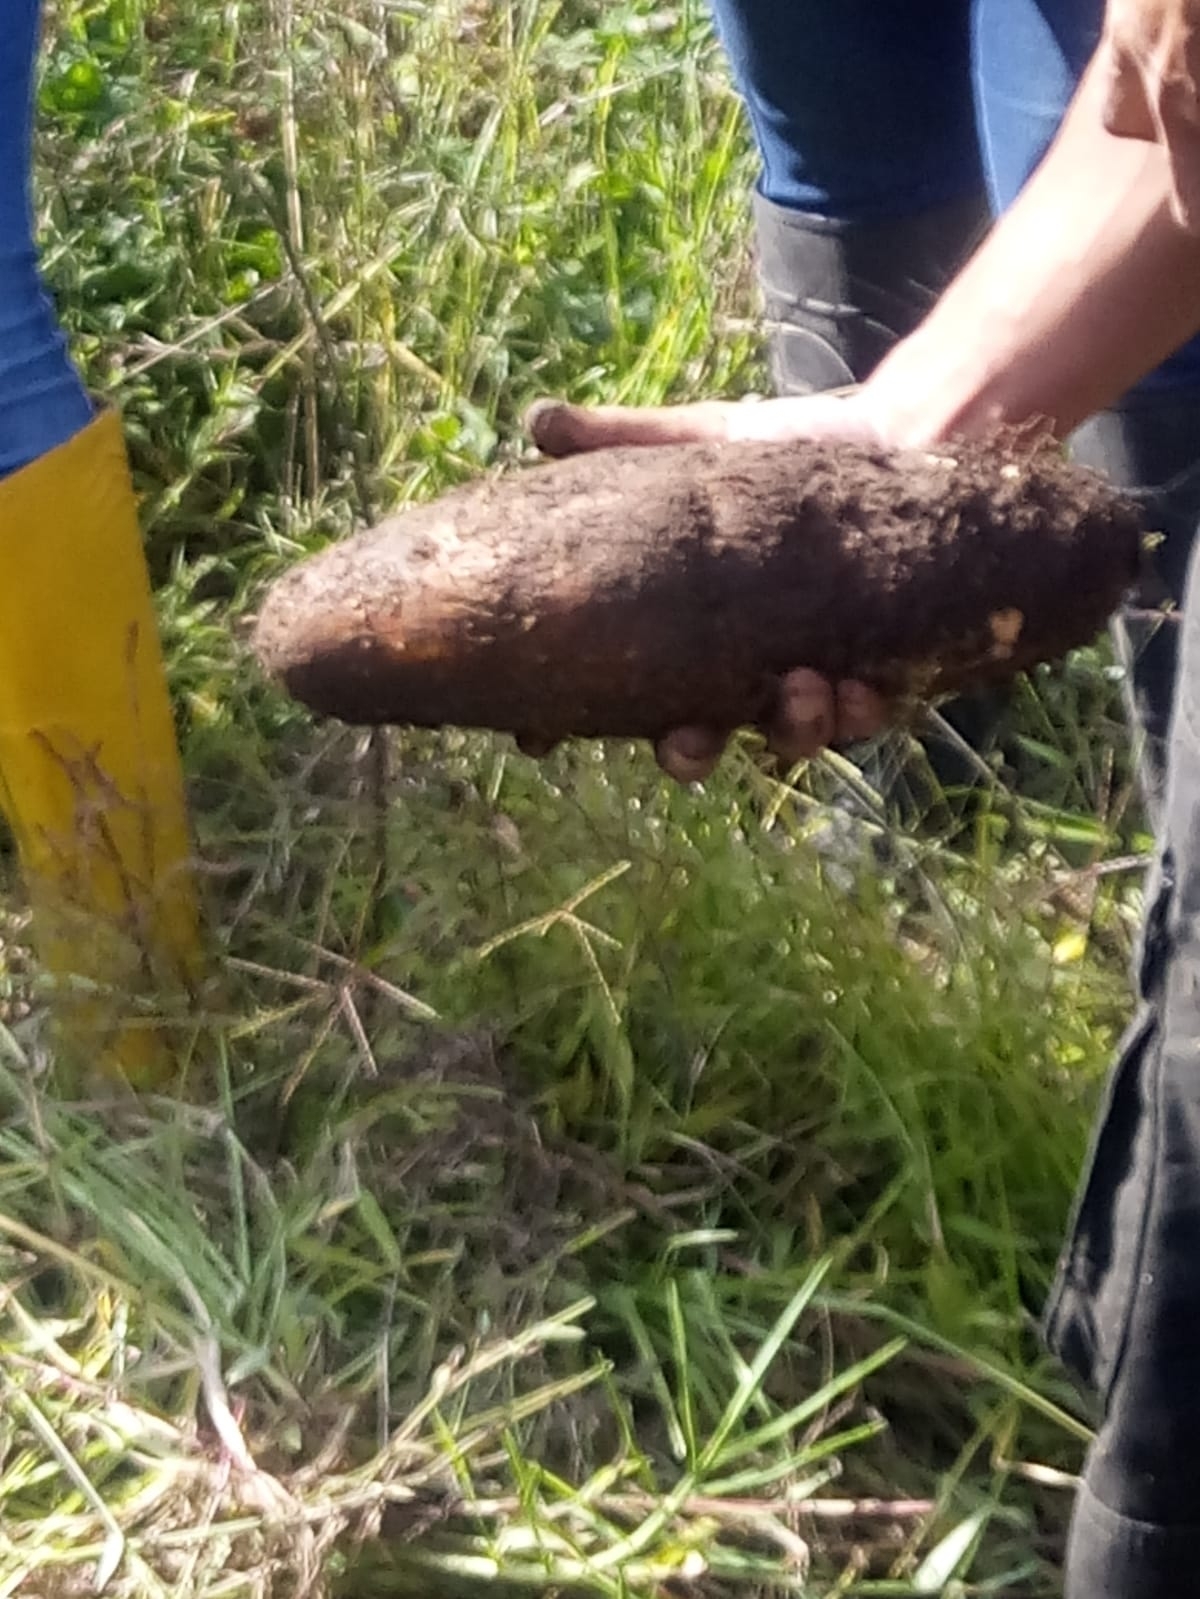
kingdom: Plantae
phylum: Tracheophyta
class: Magnoliopsida
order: Malpighiales
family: Euphorbiaceae
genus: Manihot
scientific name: Manihot esculenta
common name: Cassava
